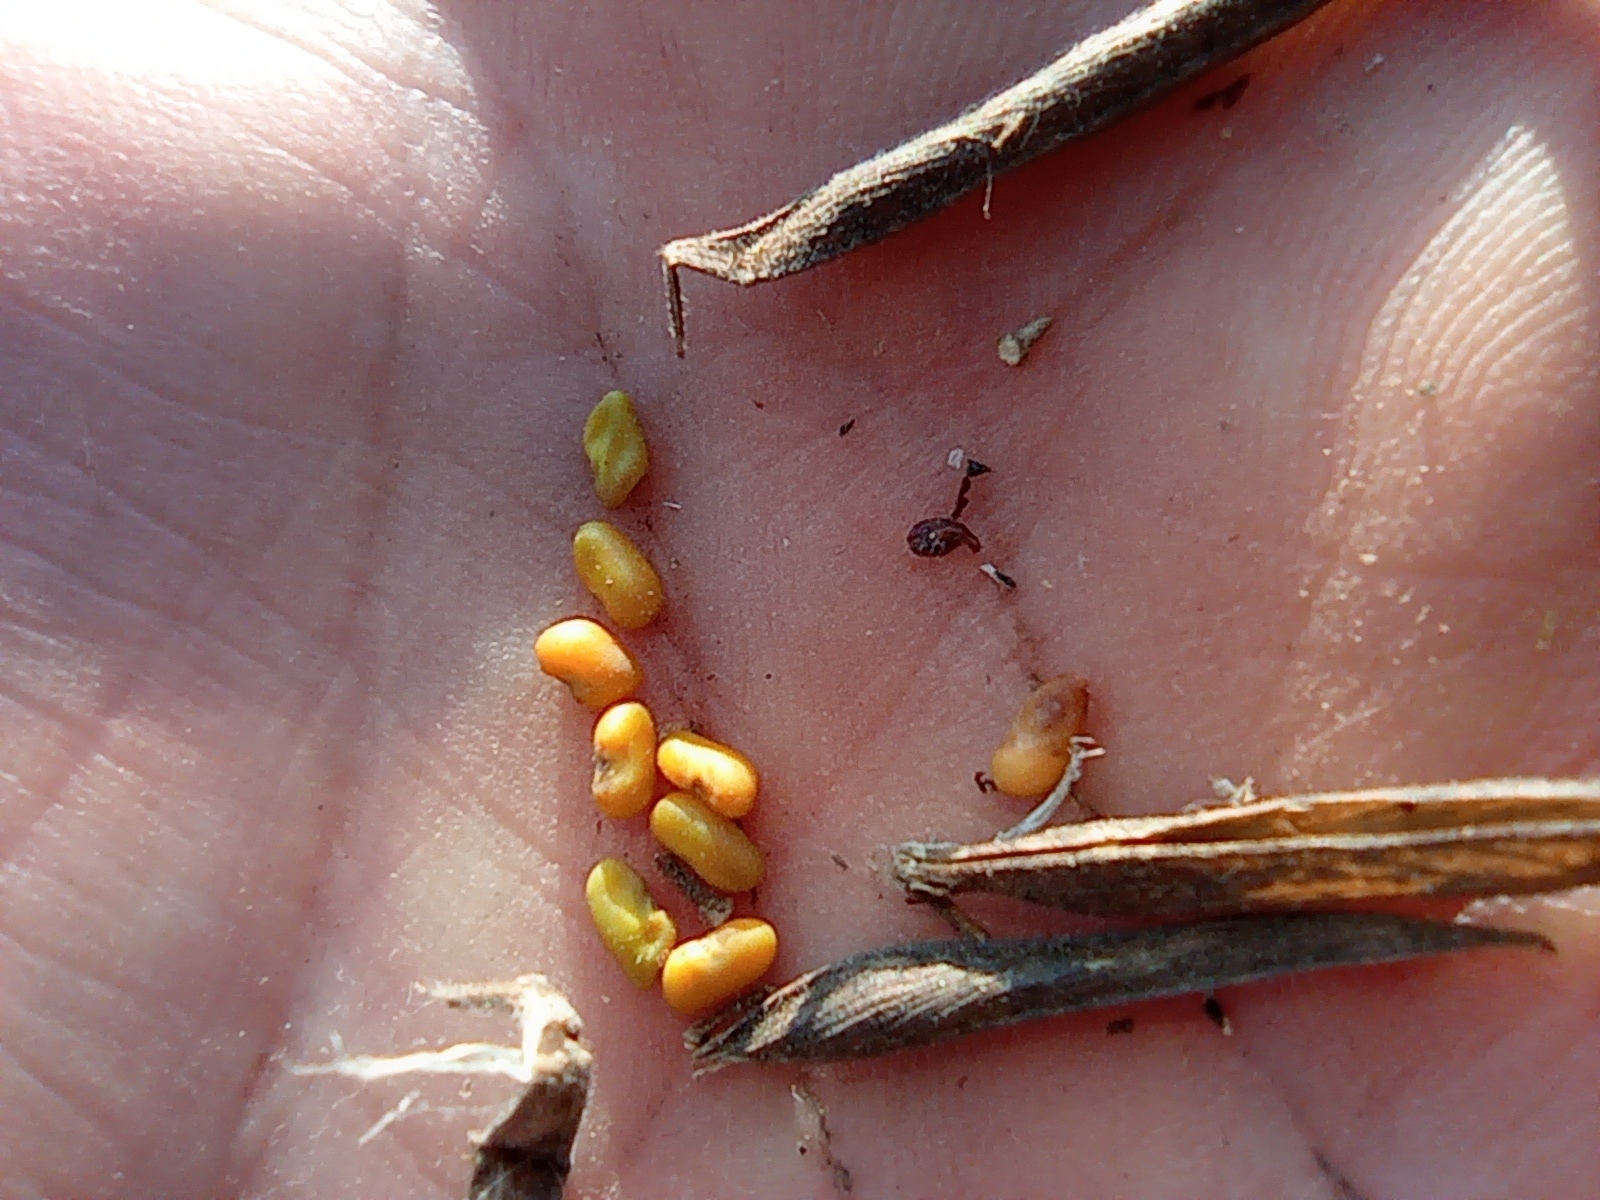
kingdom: Plantae
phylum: Tracheophyta
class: Magnoliopsida
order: Fabales
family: Fabaceae
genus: Galega
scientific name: Galega orientalis
